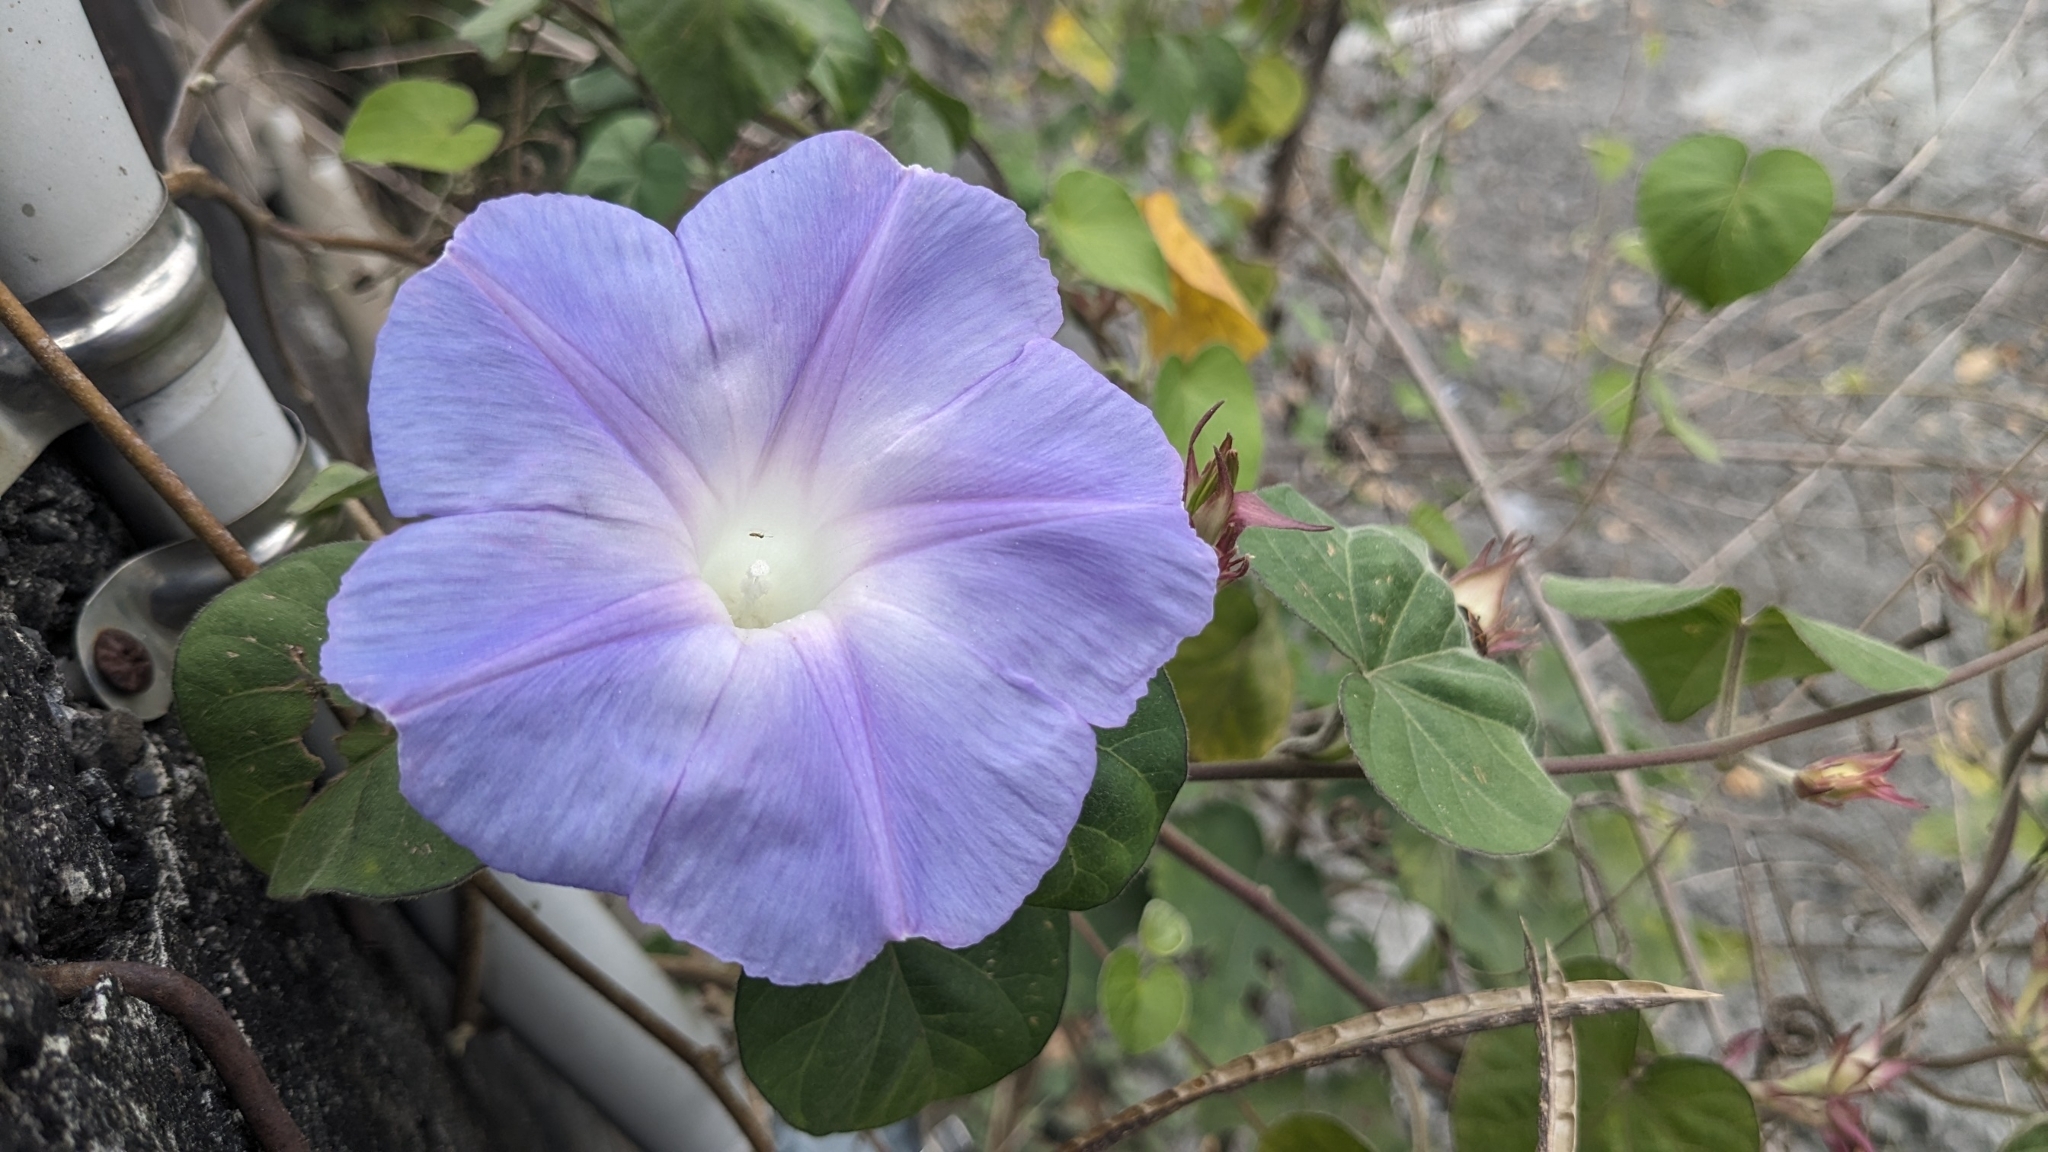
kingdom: Plantae
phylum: Tracheophyta
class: Magnoliopsida
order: Solanales
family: Convolvulaceae
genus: Ipomoea
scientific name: Ipomoea indica
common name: Blue dawnflower
